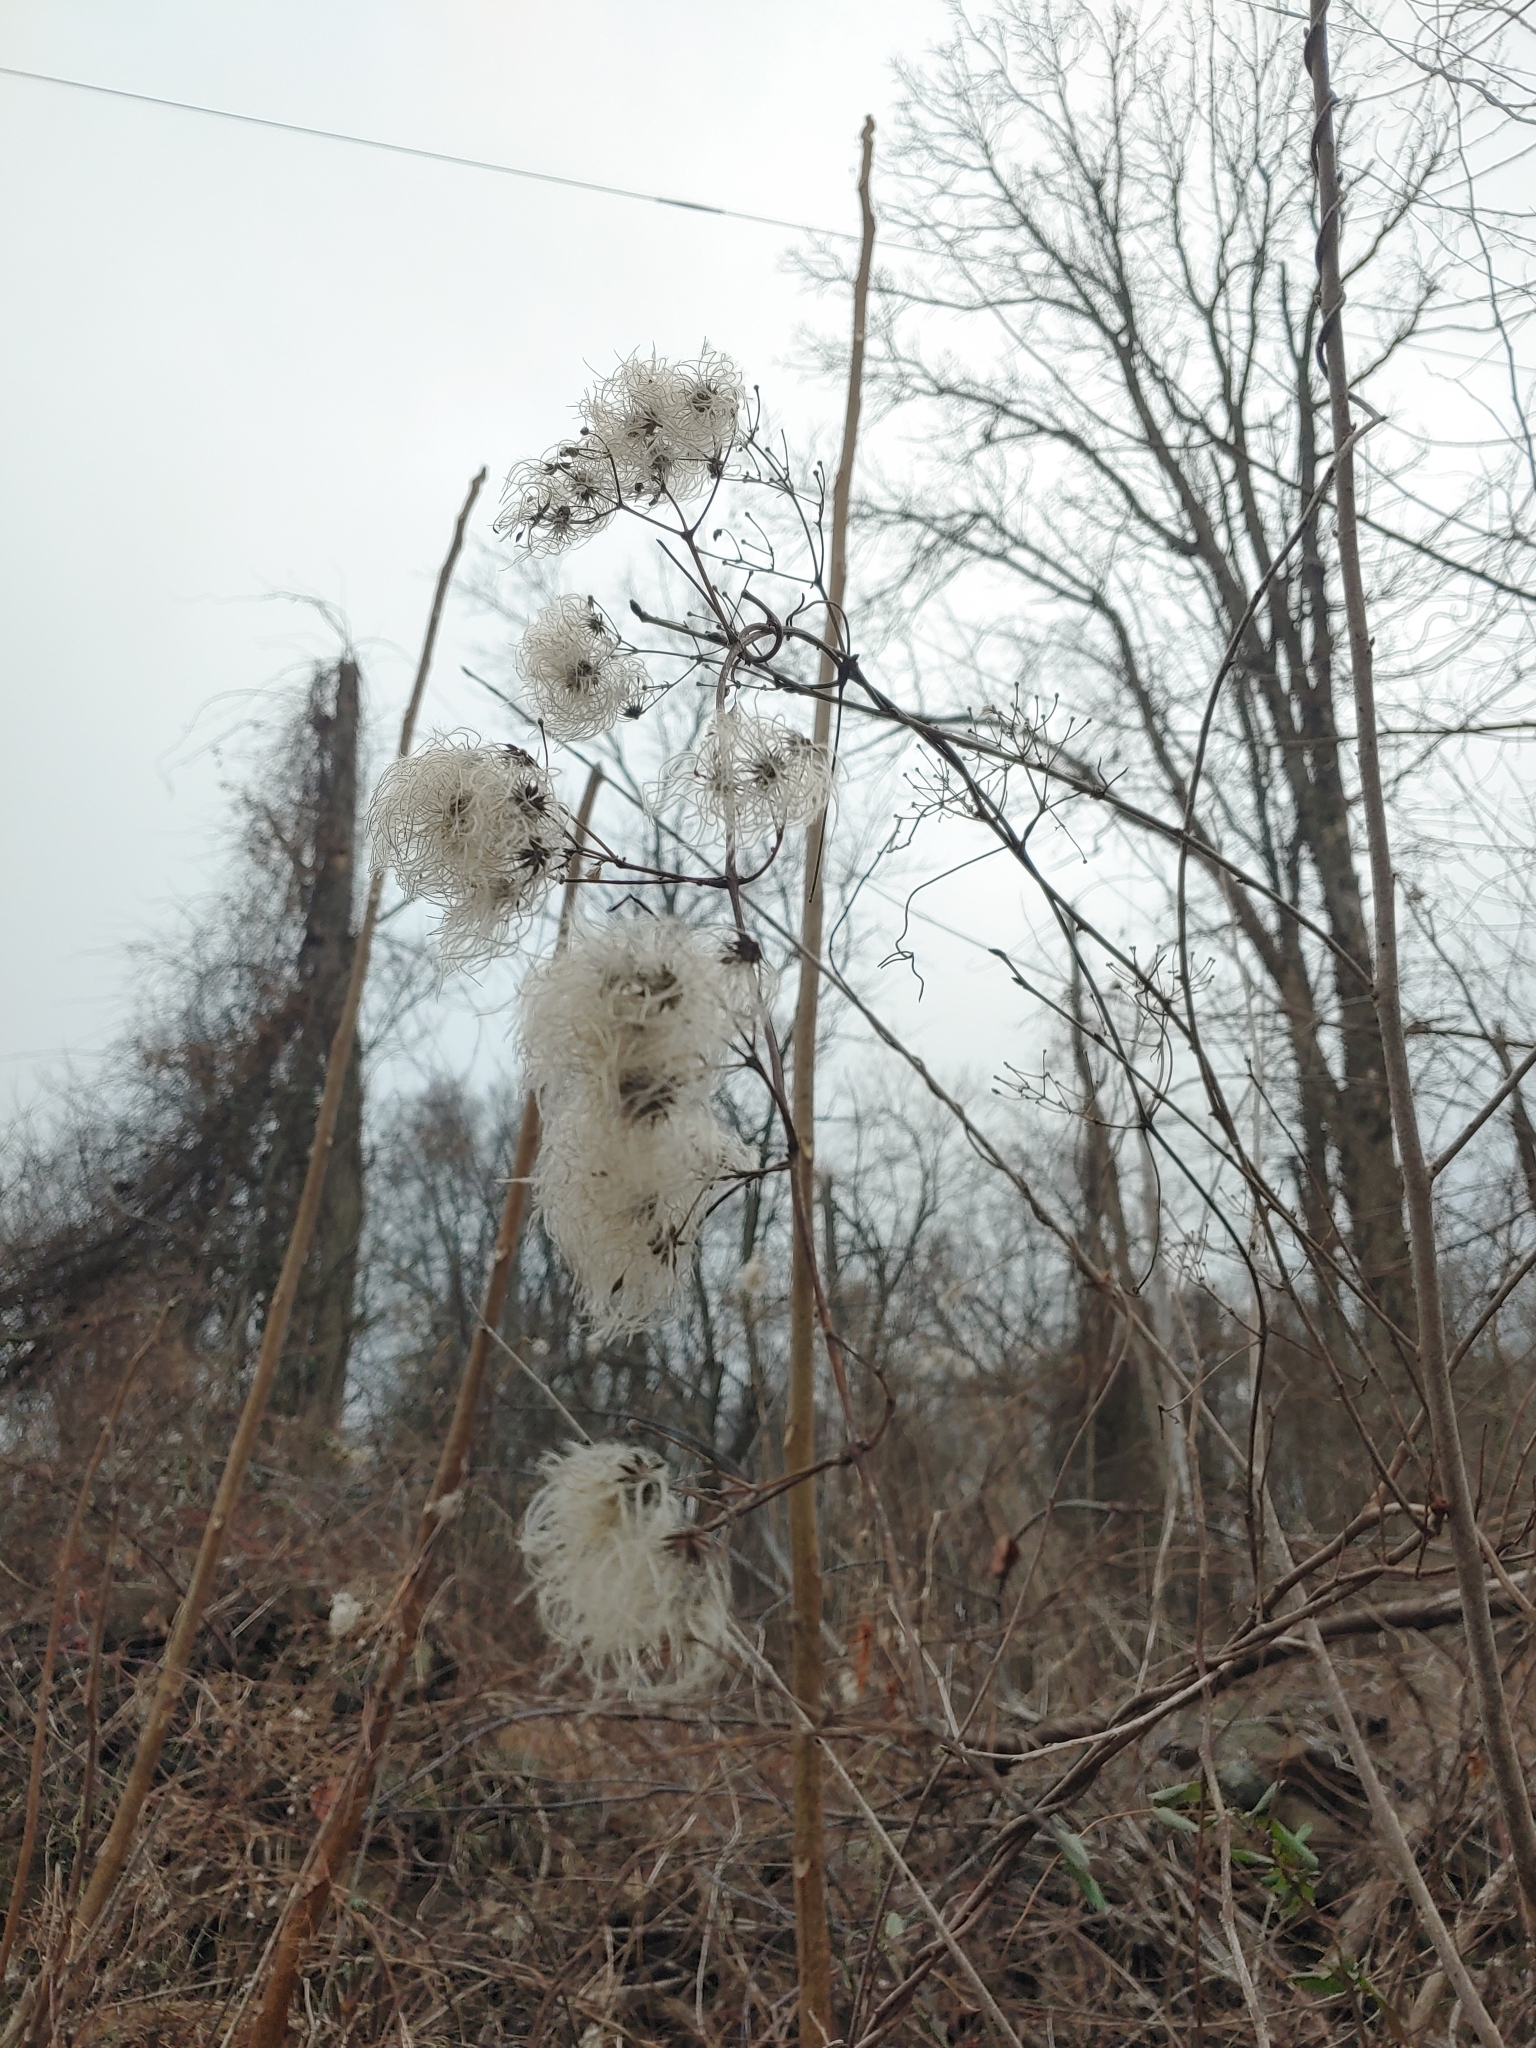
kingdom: Plantae
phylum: Tracheophyta
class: Magnoliopsida
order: Ranunculales
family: Ranunculaceae
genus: Clematis
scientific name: Clematis virginiana
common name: Virgin's-bower
